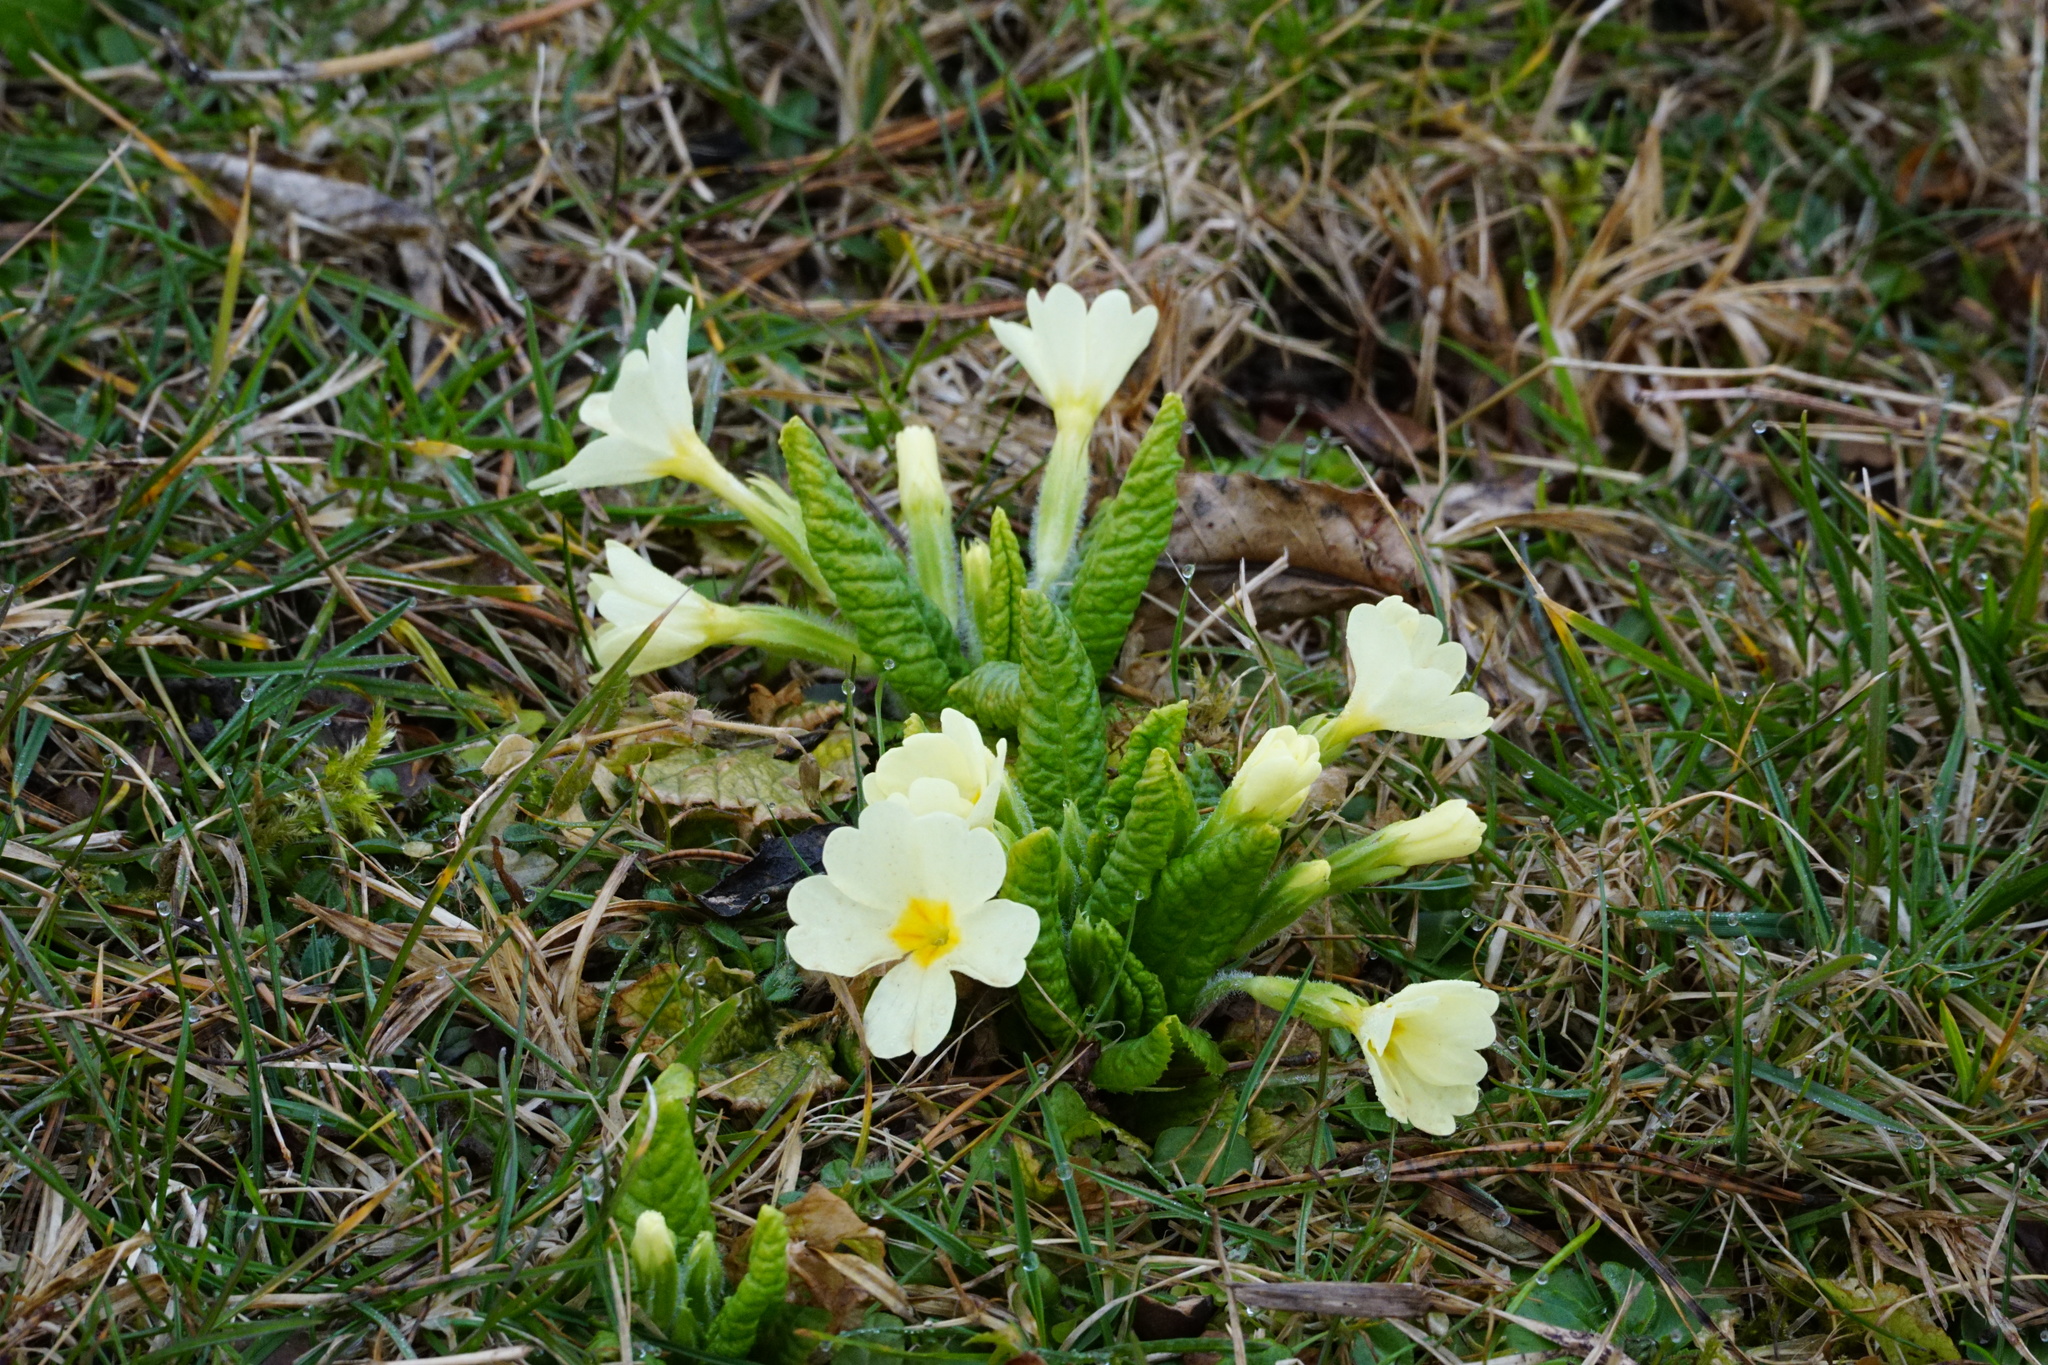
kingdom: Plantae
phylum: Tracheophyta
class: Magnoliopsida
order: Ericales
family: Primulaceae
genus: Primula
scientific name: Primula vulgaris
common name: Primrose
